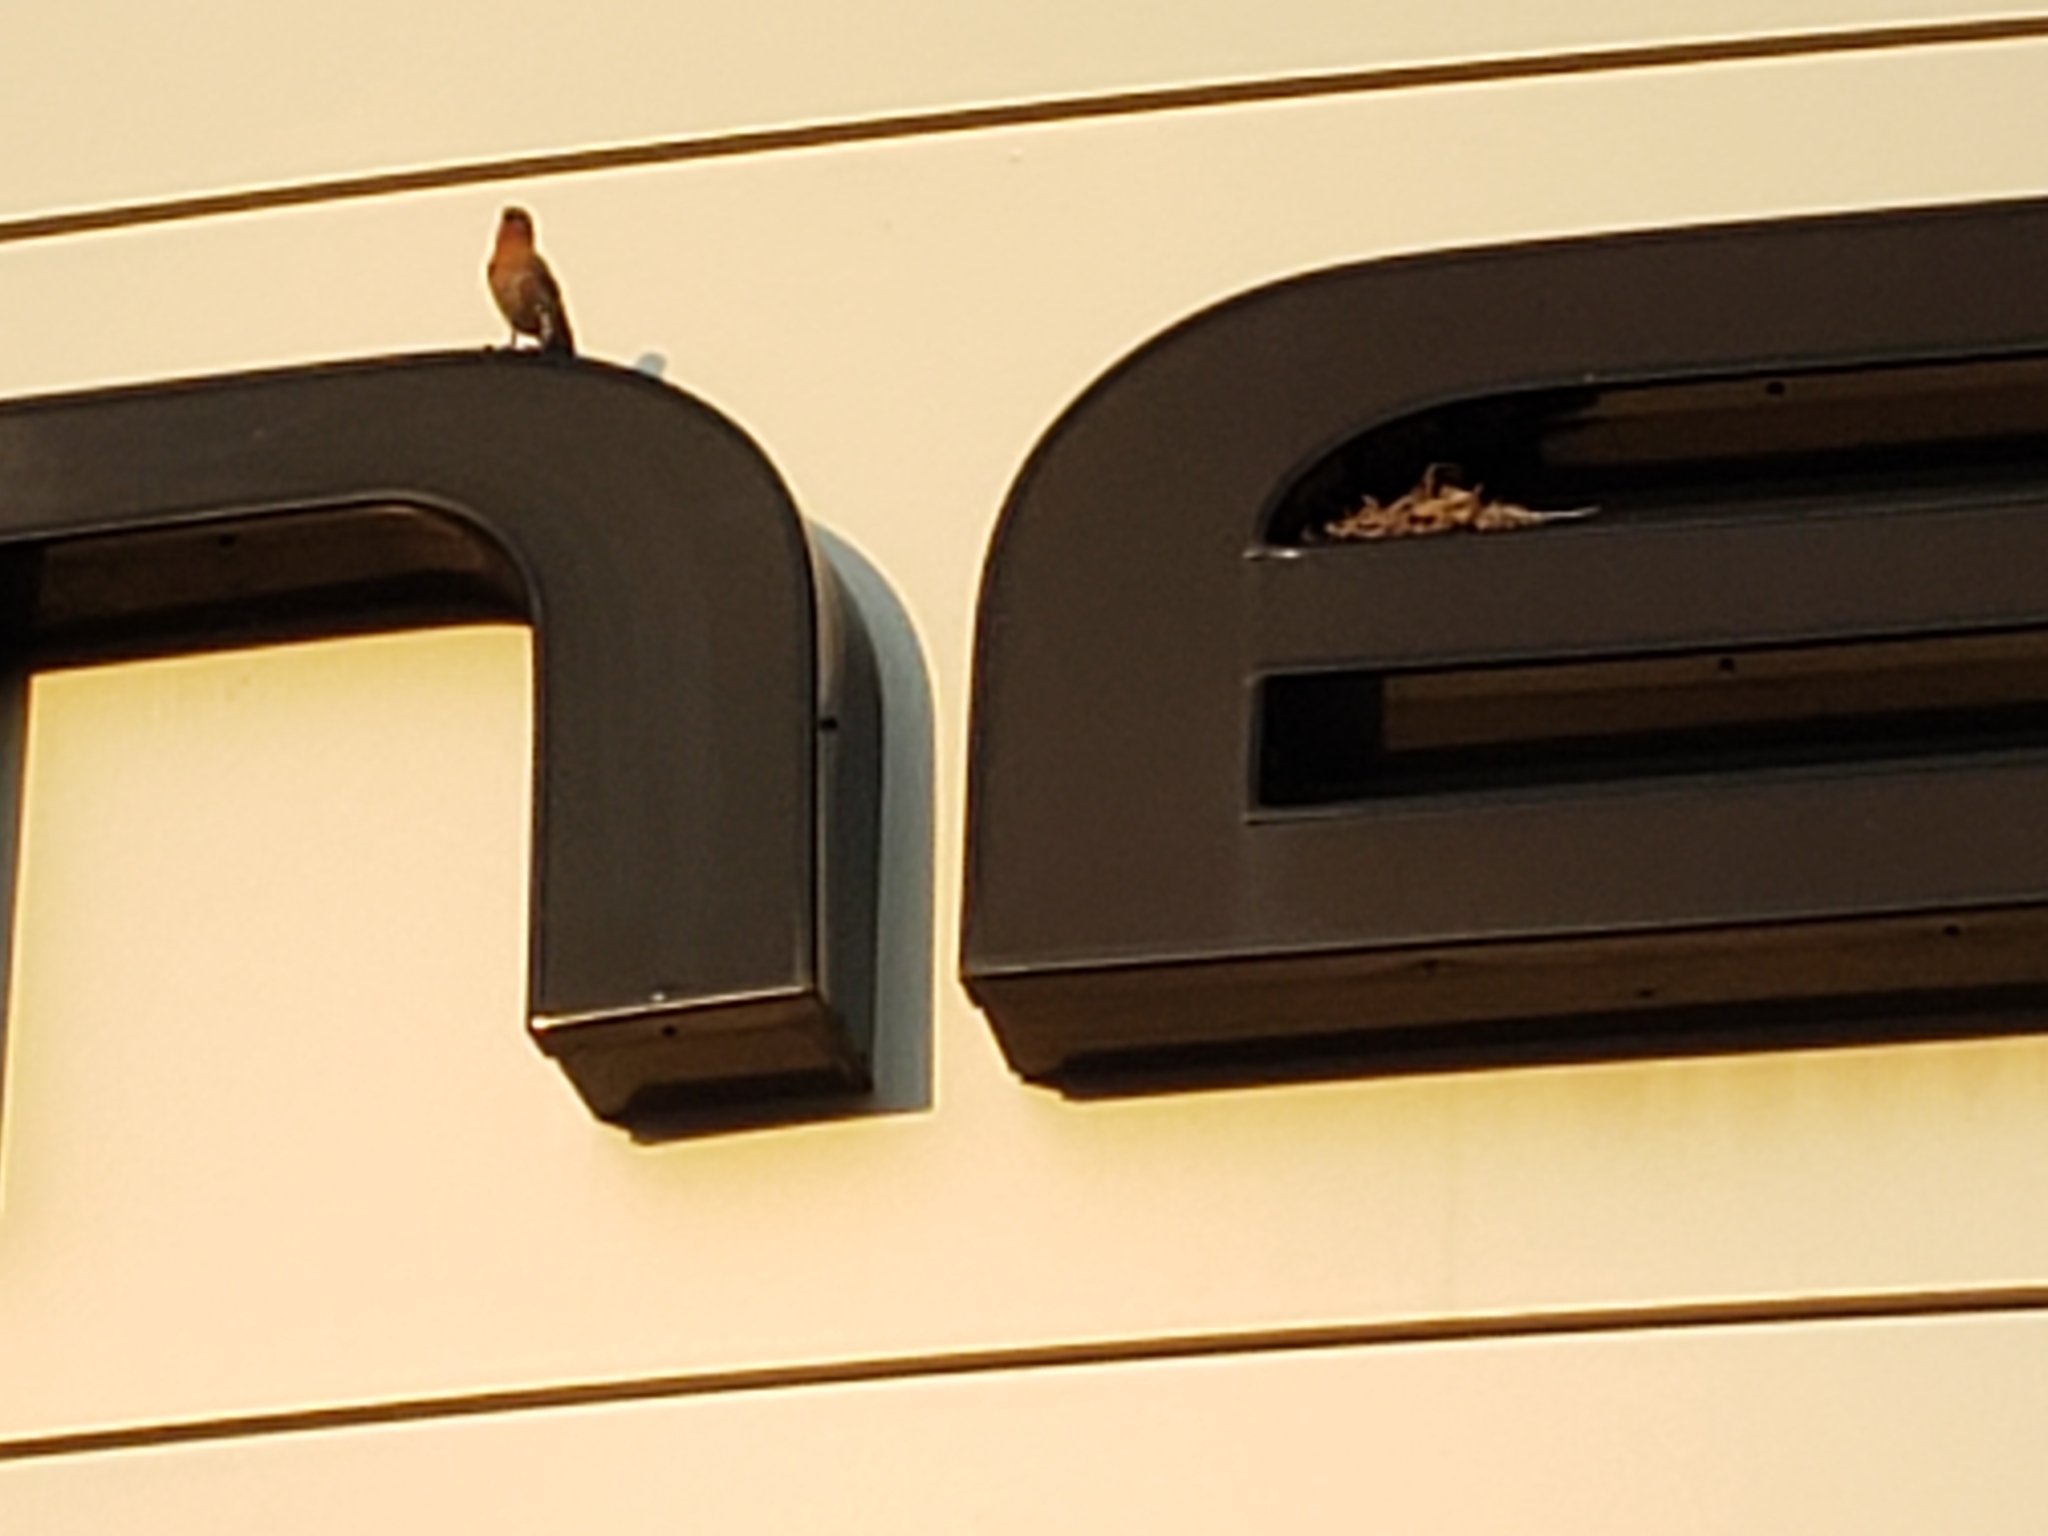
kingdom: Animalia
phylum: Chordata
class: Aves
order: Passeriformes
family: Fringillidae
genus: Haemorhous
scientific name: Haemorhous mexicanus
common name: House finch
